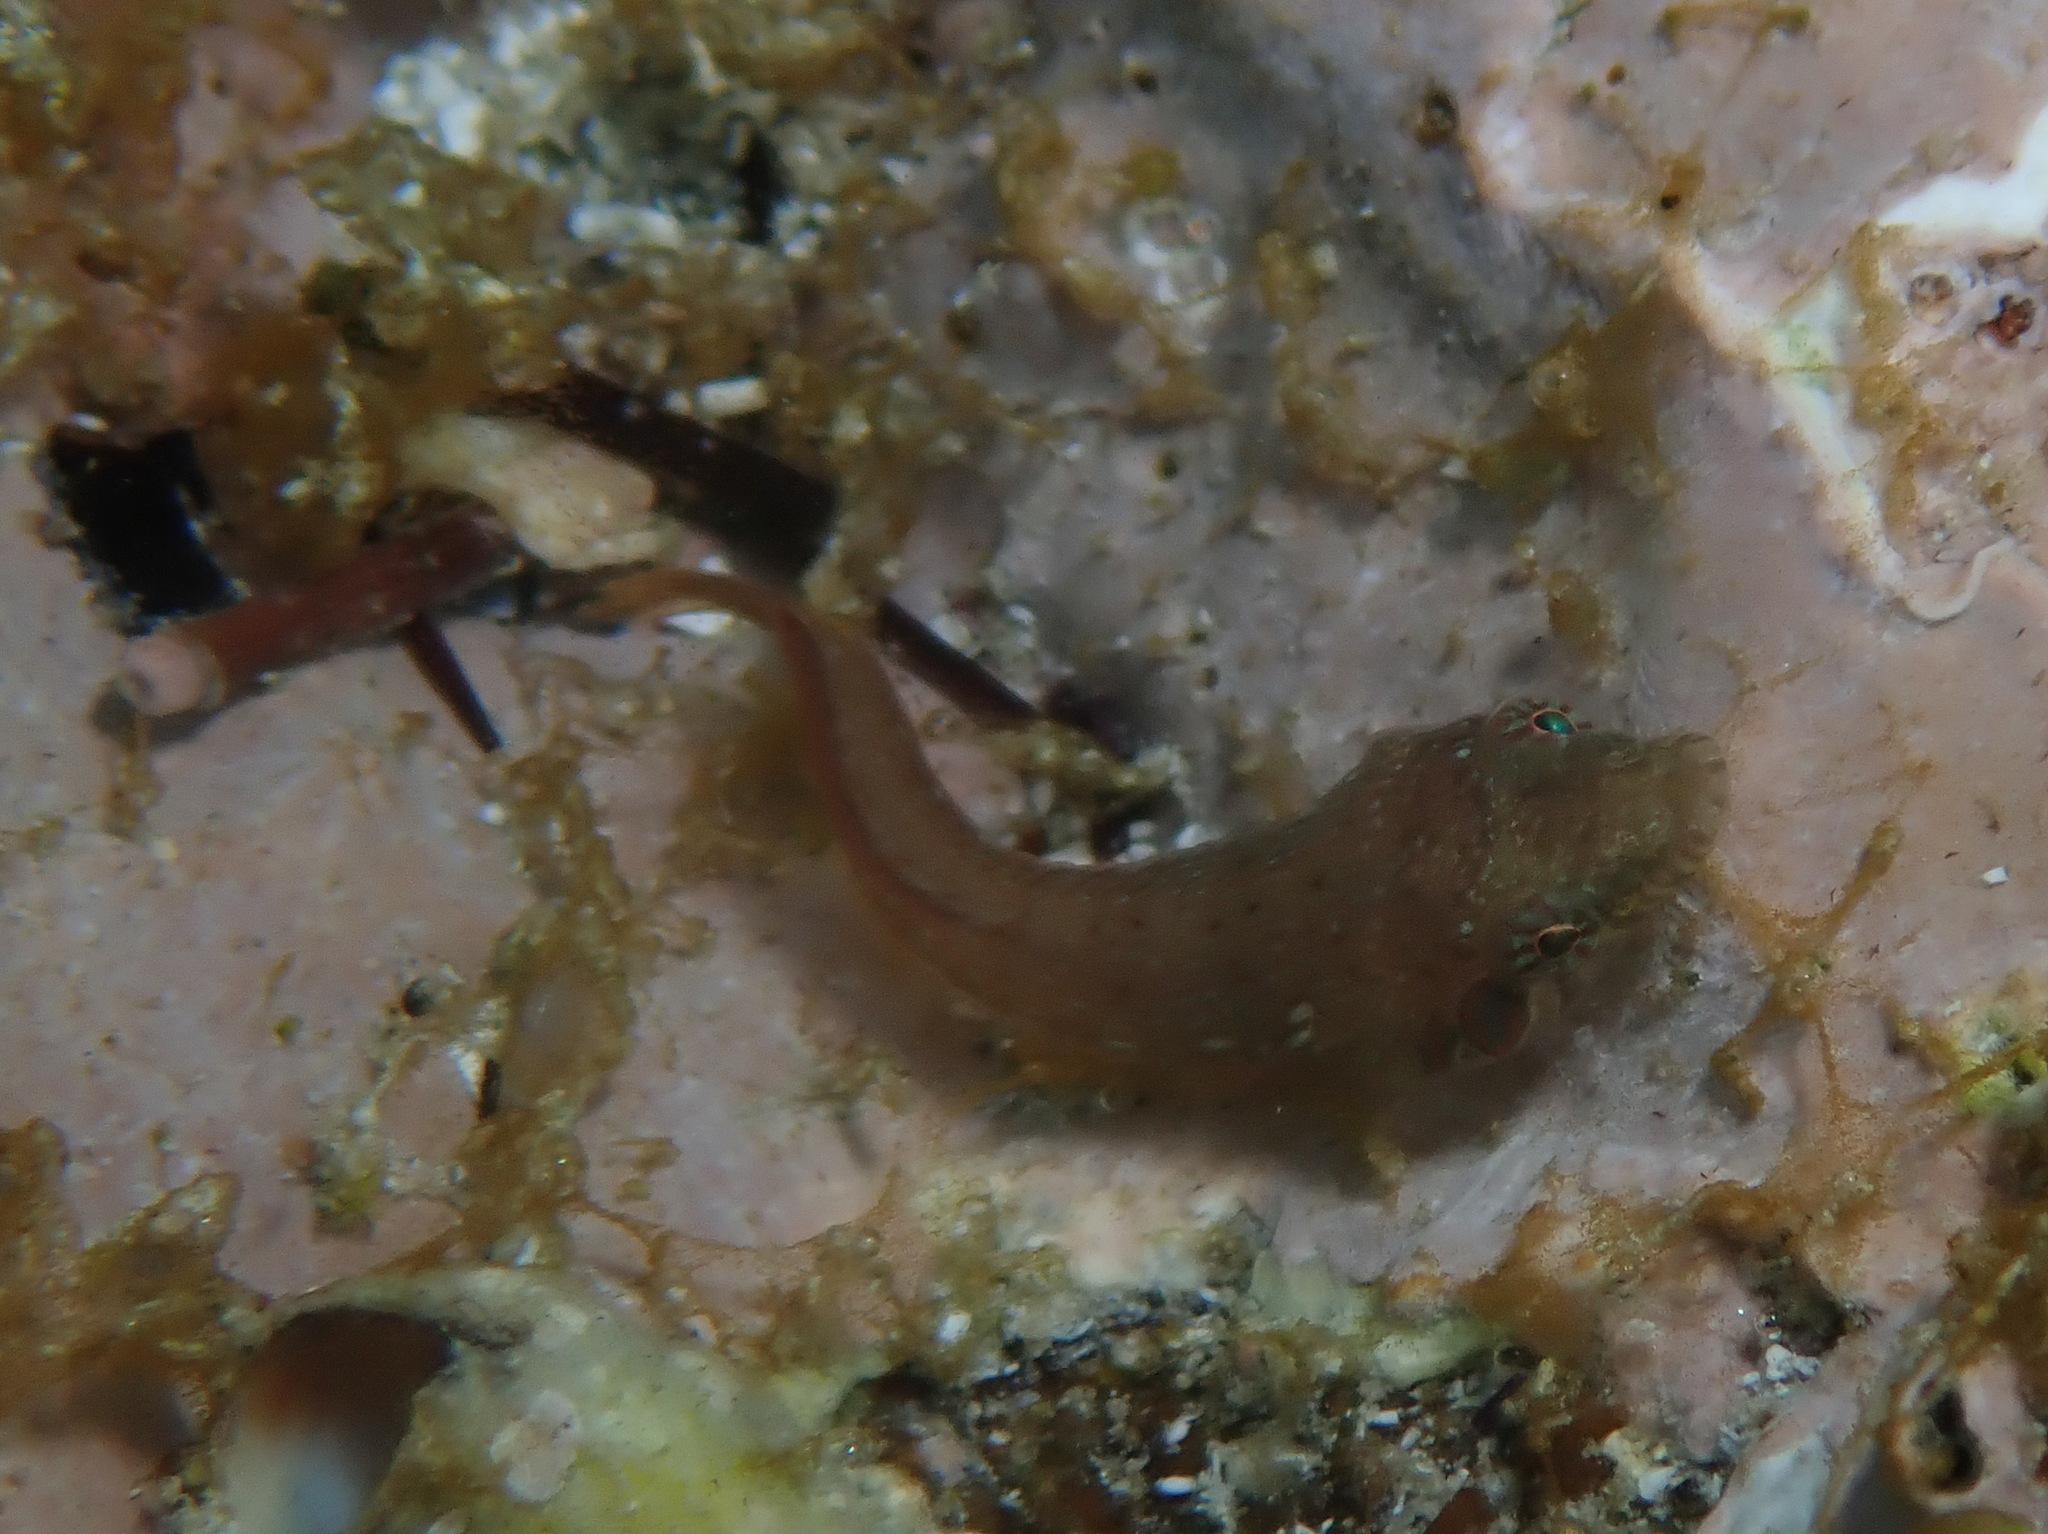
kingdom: Animalia
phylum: Chordata
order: Gobiesociformes
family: Gobiesocidae
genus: Lepadogaster
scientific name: Lepadogaster candolii
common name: Connemarra clingfish
